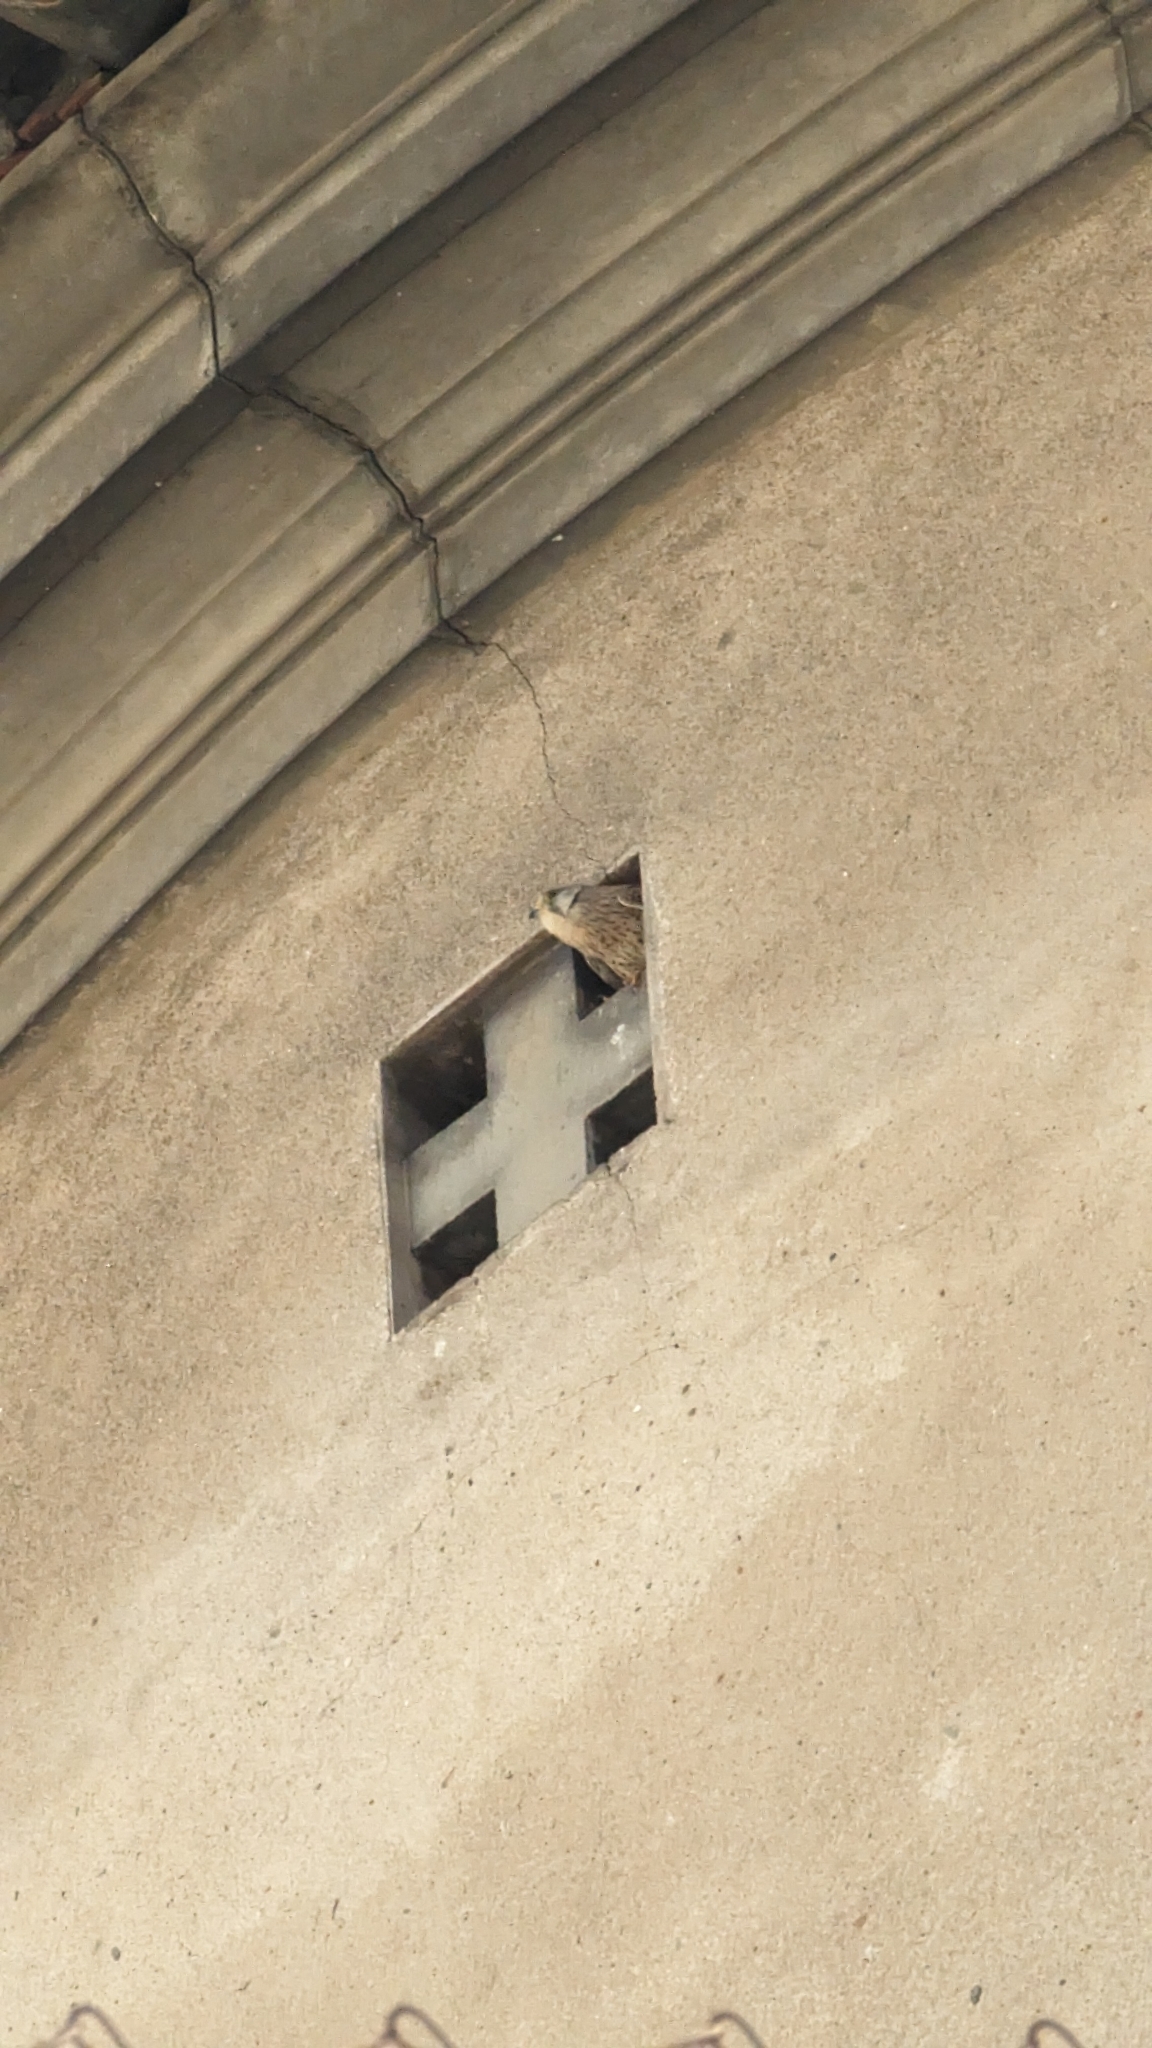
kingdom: Animalia
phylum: Chordata
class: Aves
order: Falconiformes
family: Falconidae
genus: Falco
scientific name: Falco tinnunculus
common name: Common kestrel
